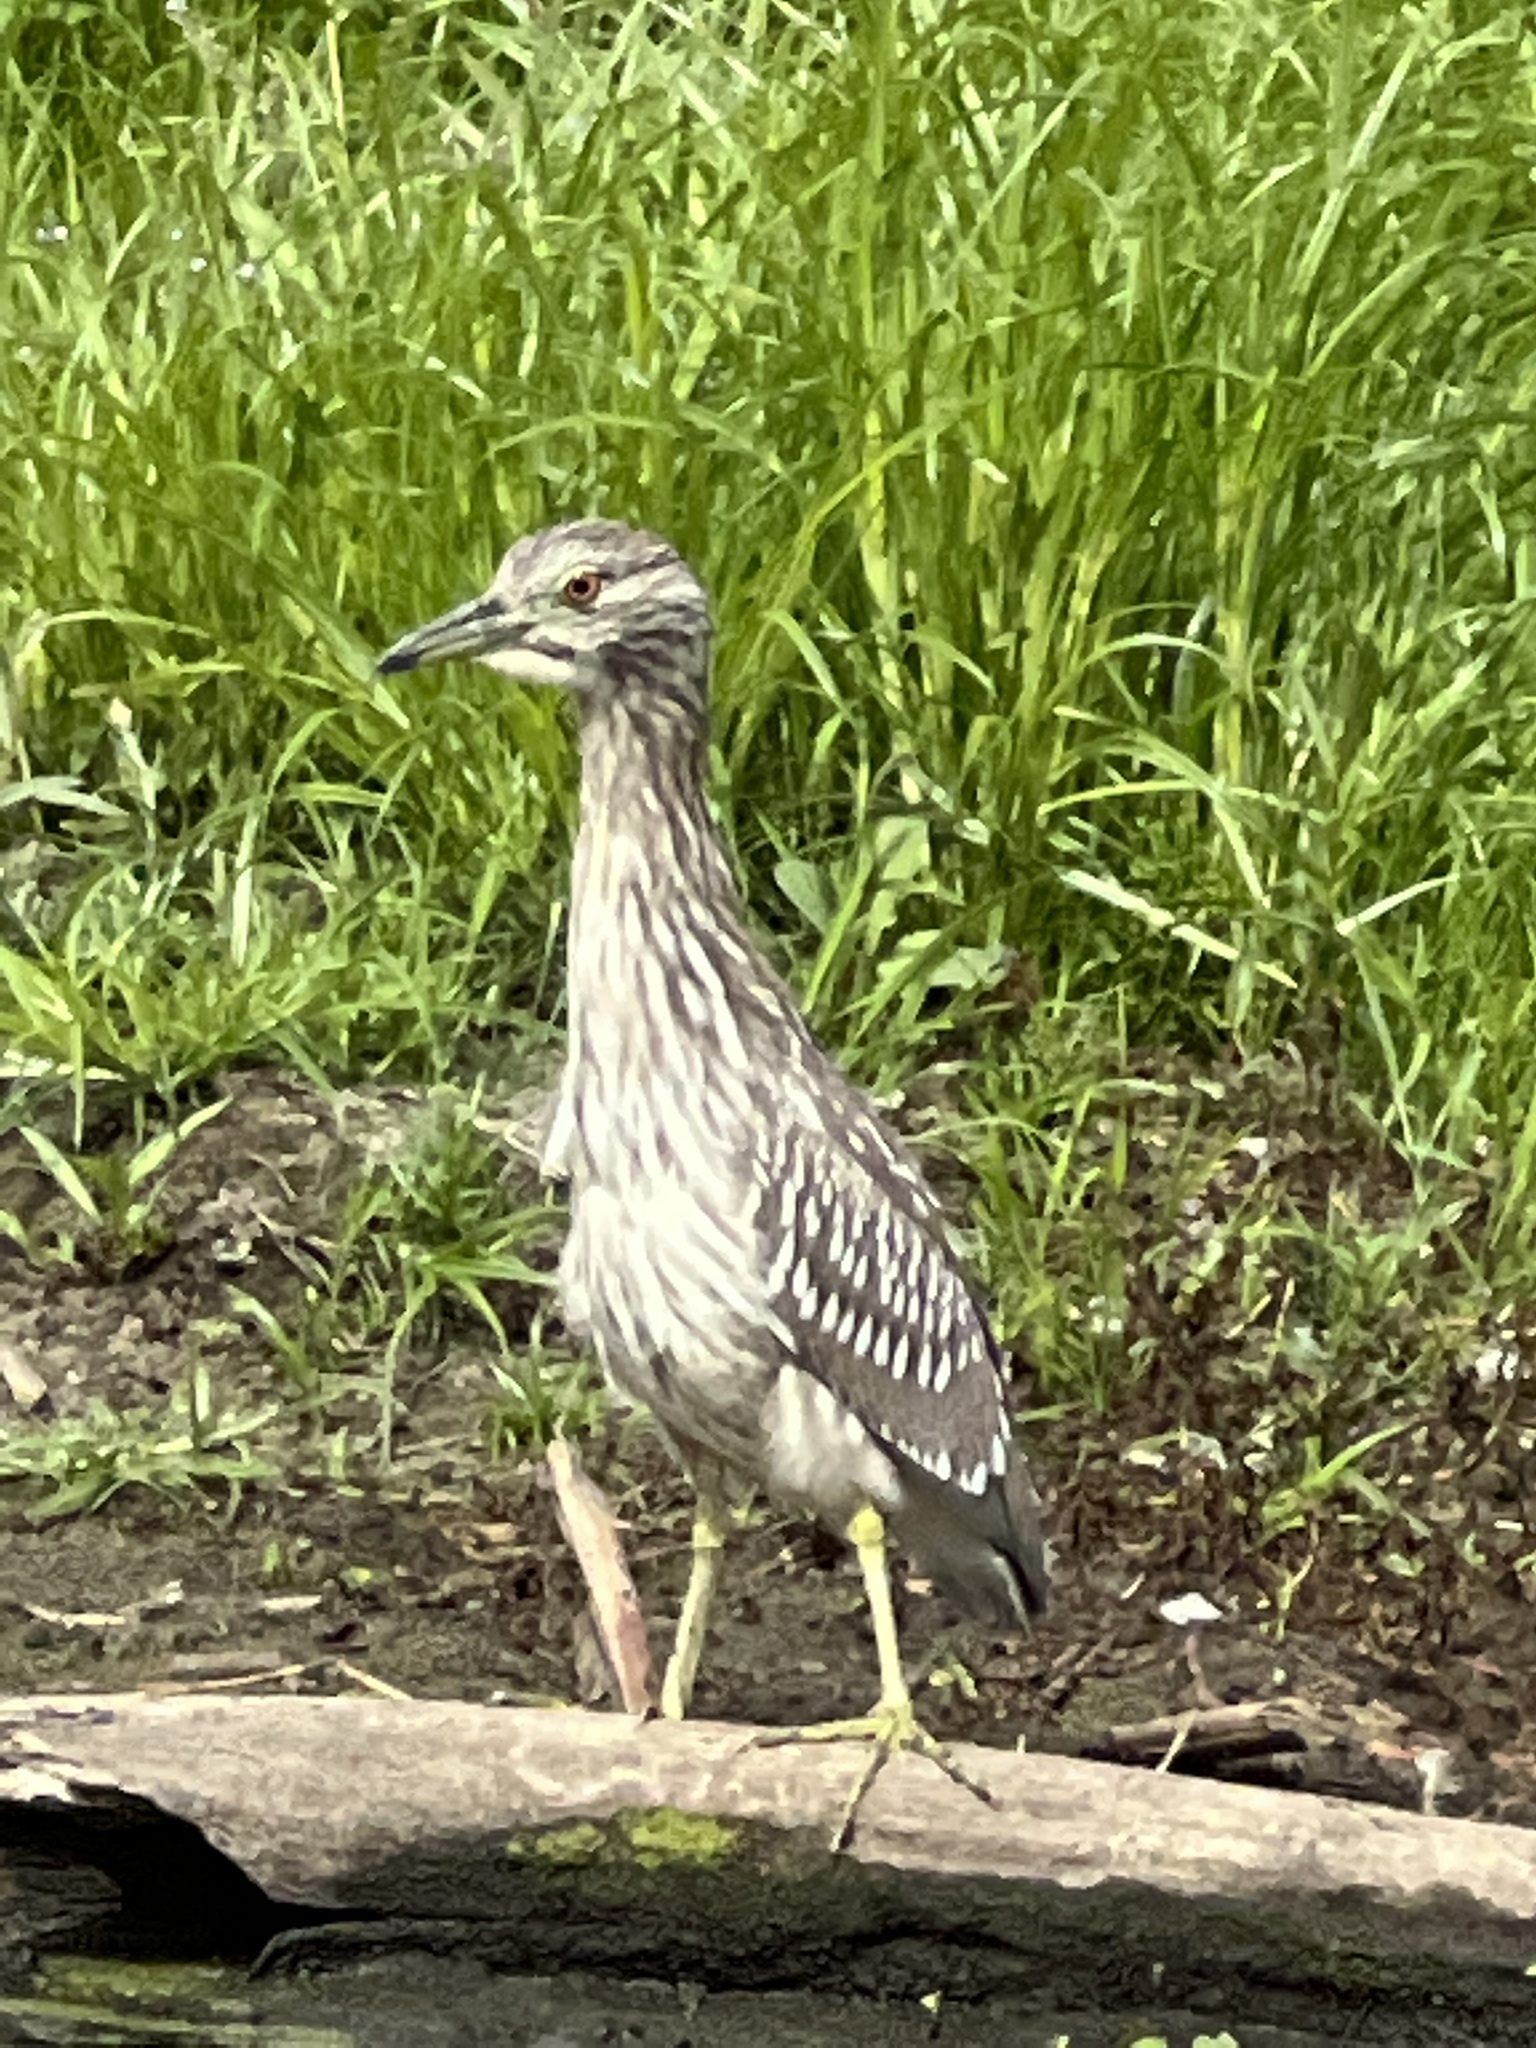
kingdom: Animalia
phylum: Chordata
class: Aves
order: Pelecaniformes
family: Ardeidae
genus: Nycticorax
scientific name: Nycticorax nycticorax
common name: Black-crowned night heron
